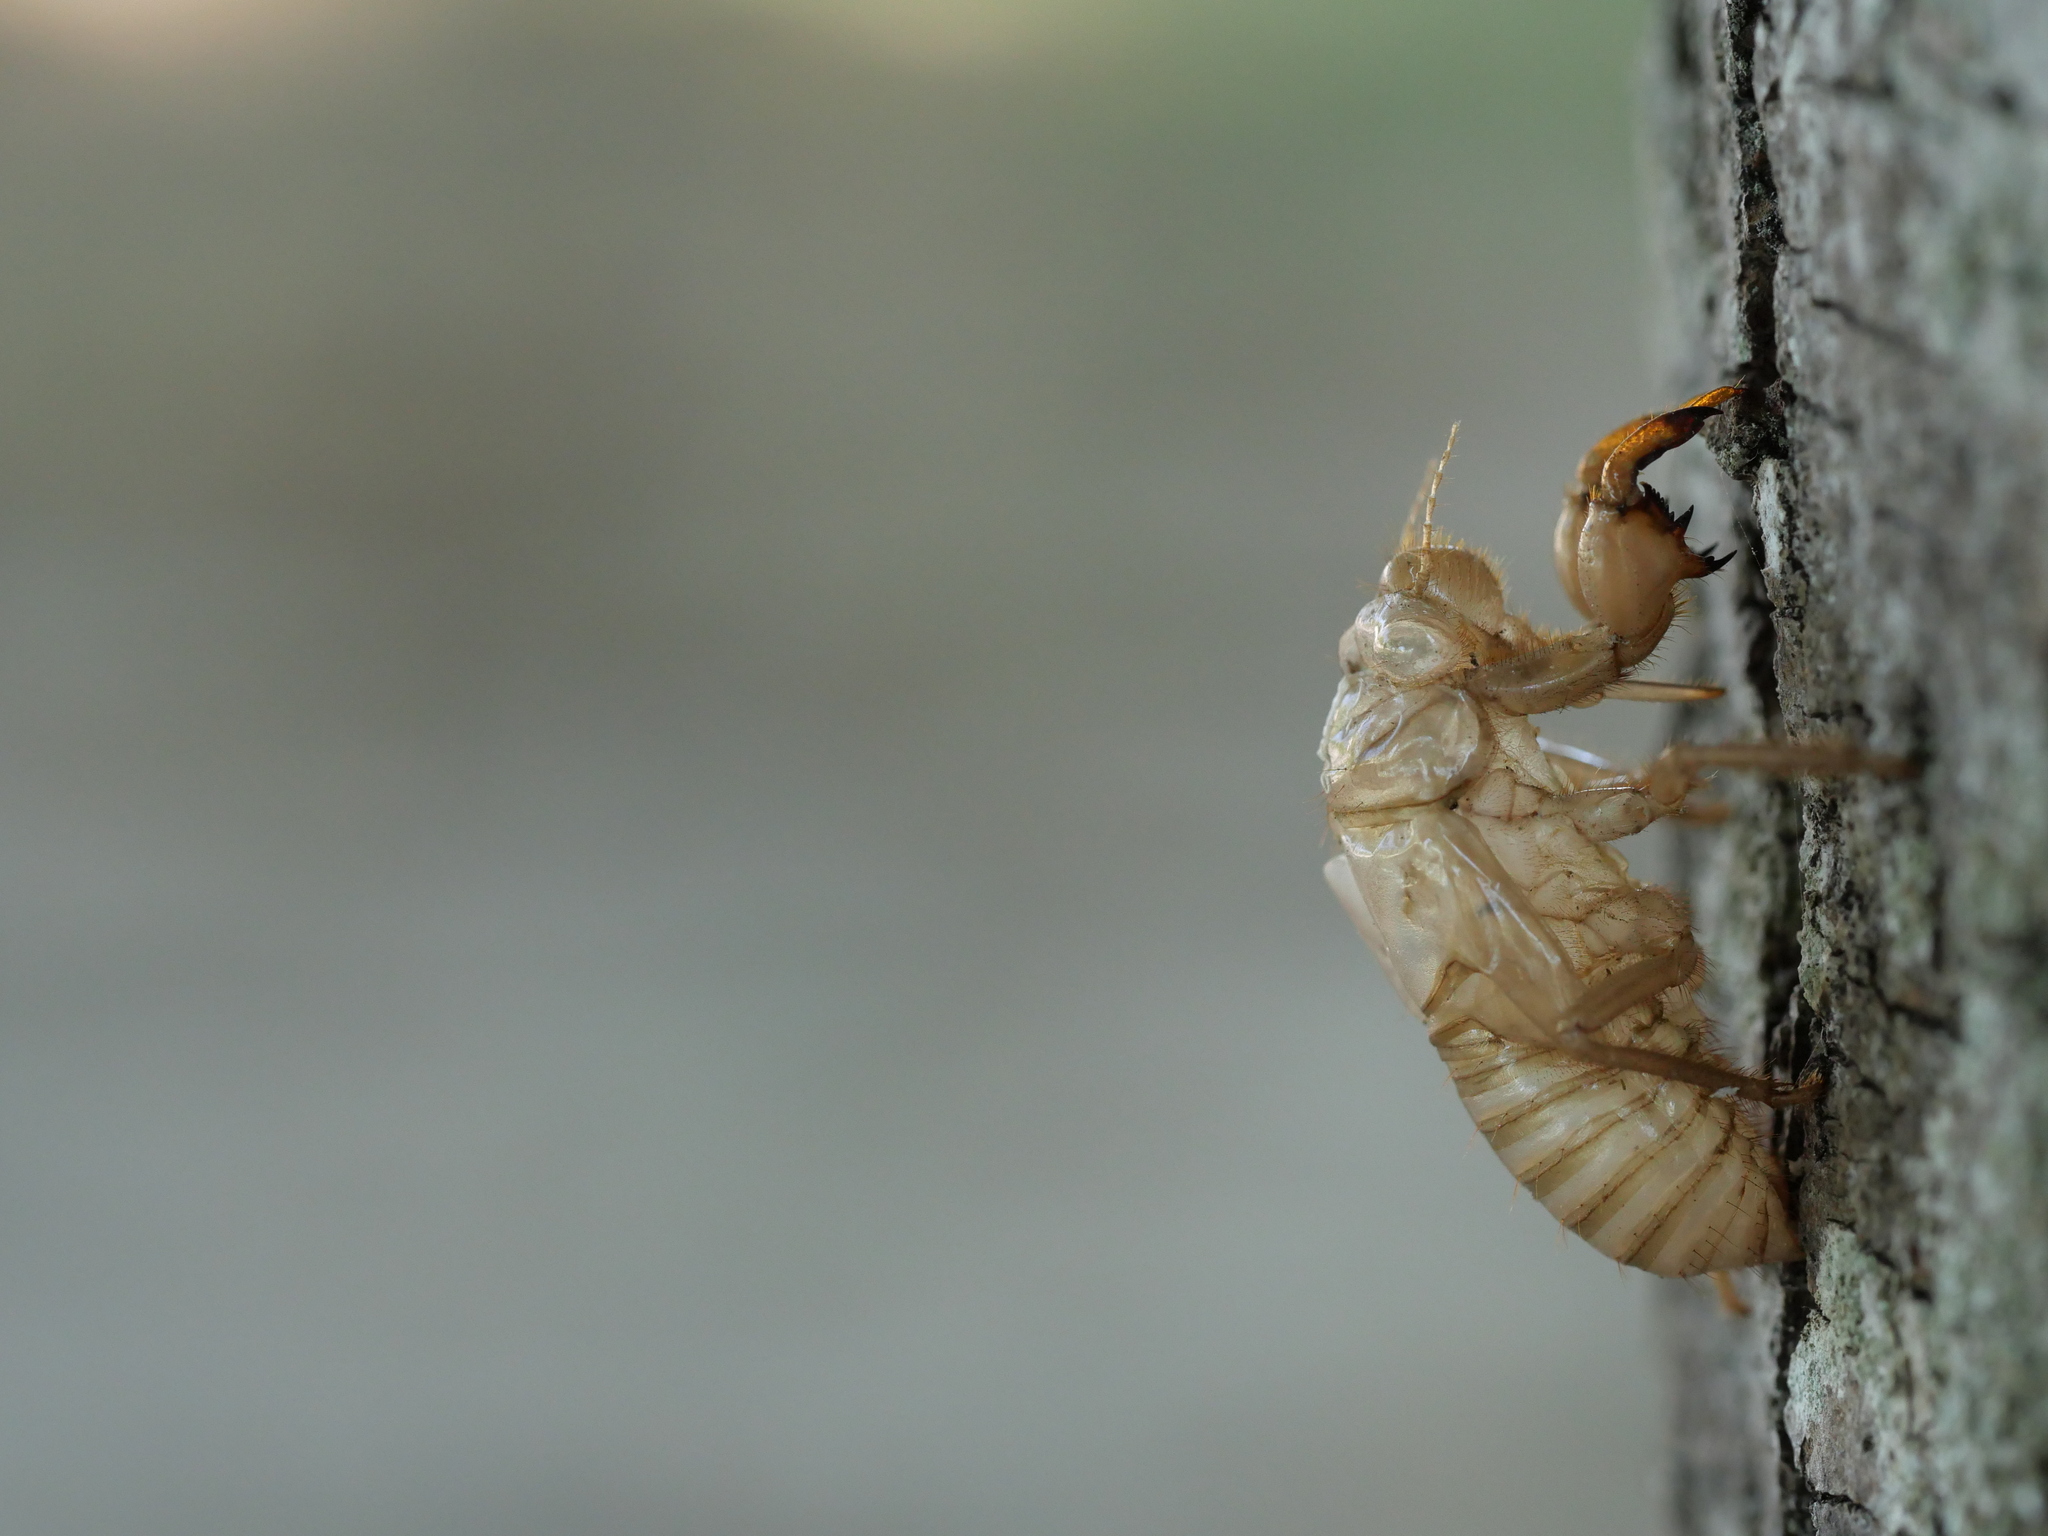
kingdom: Animalia
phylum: Arthropoda
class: Insecta
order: Hemiptera
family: Cicadidae
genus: Cicada
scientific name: Cicada orni
